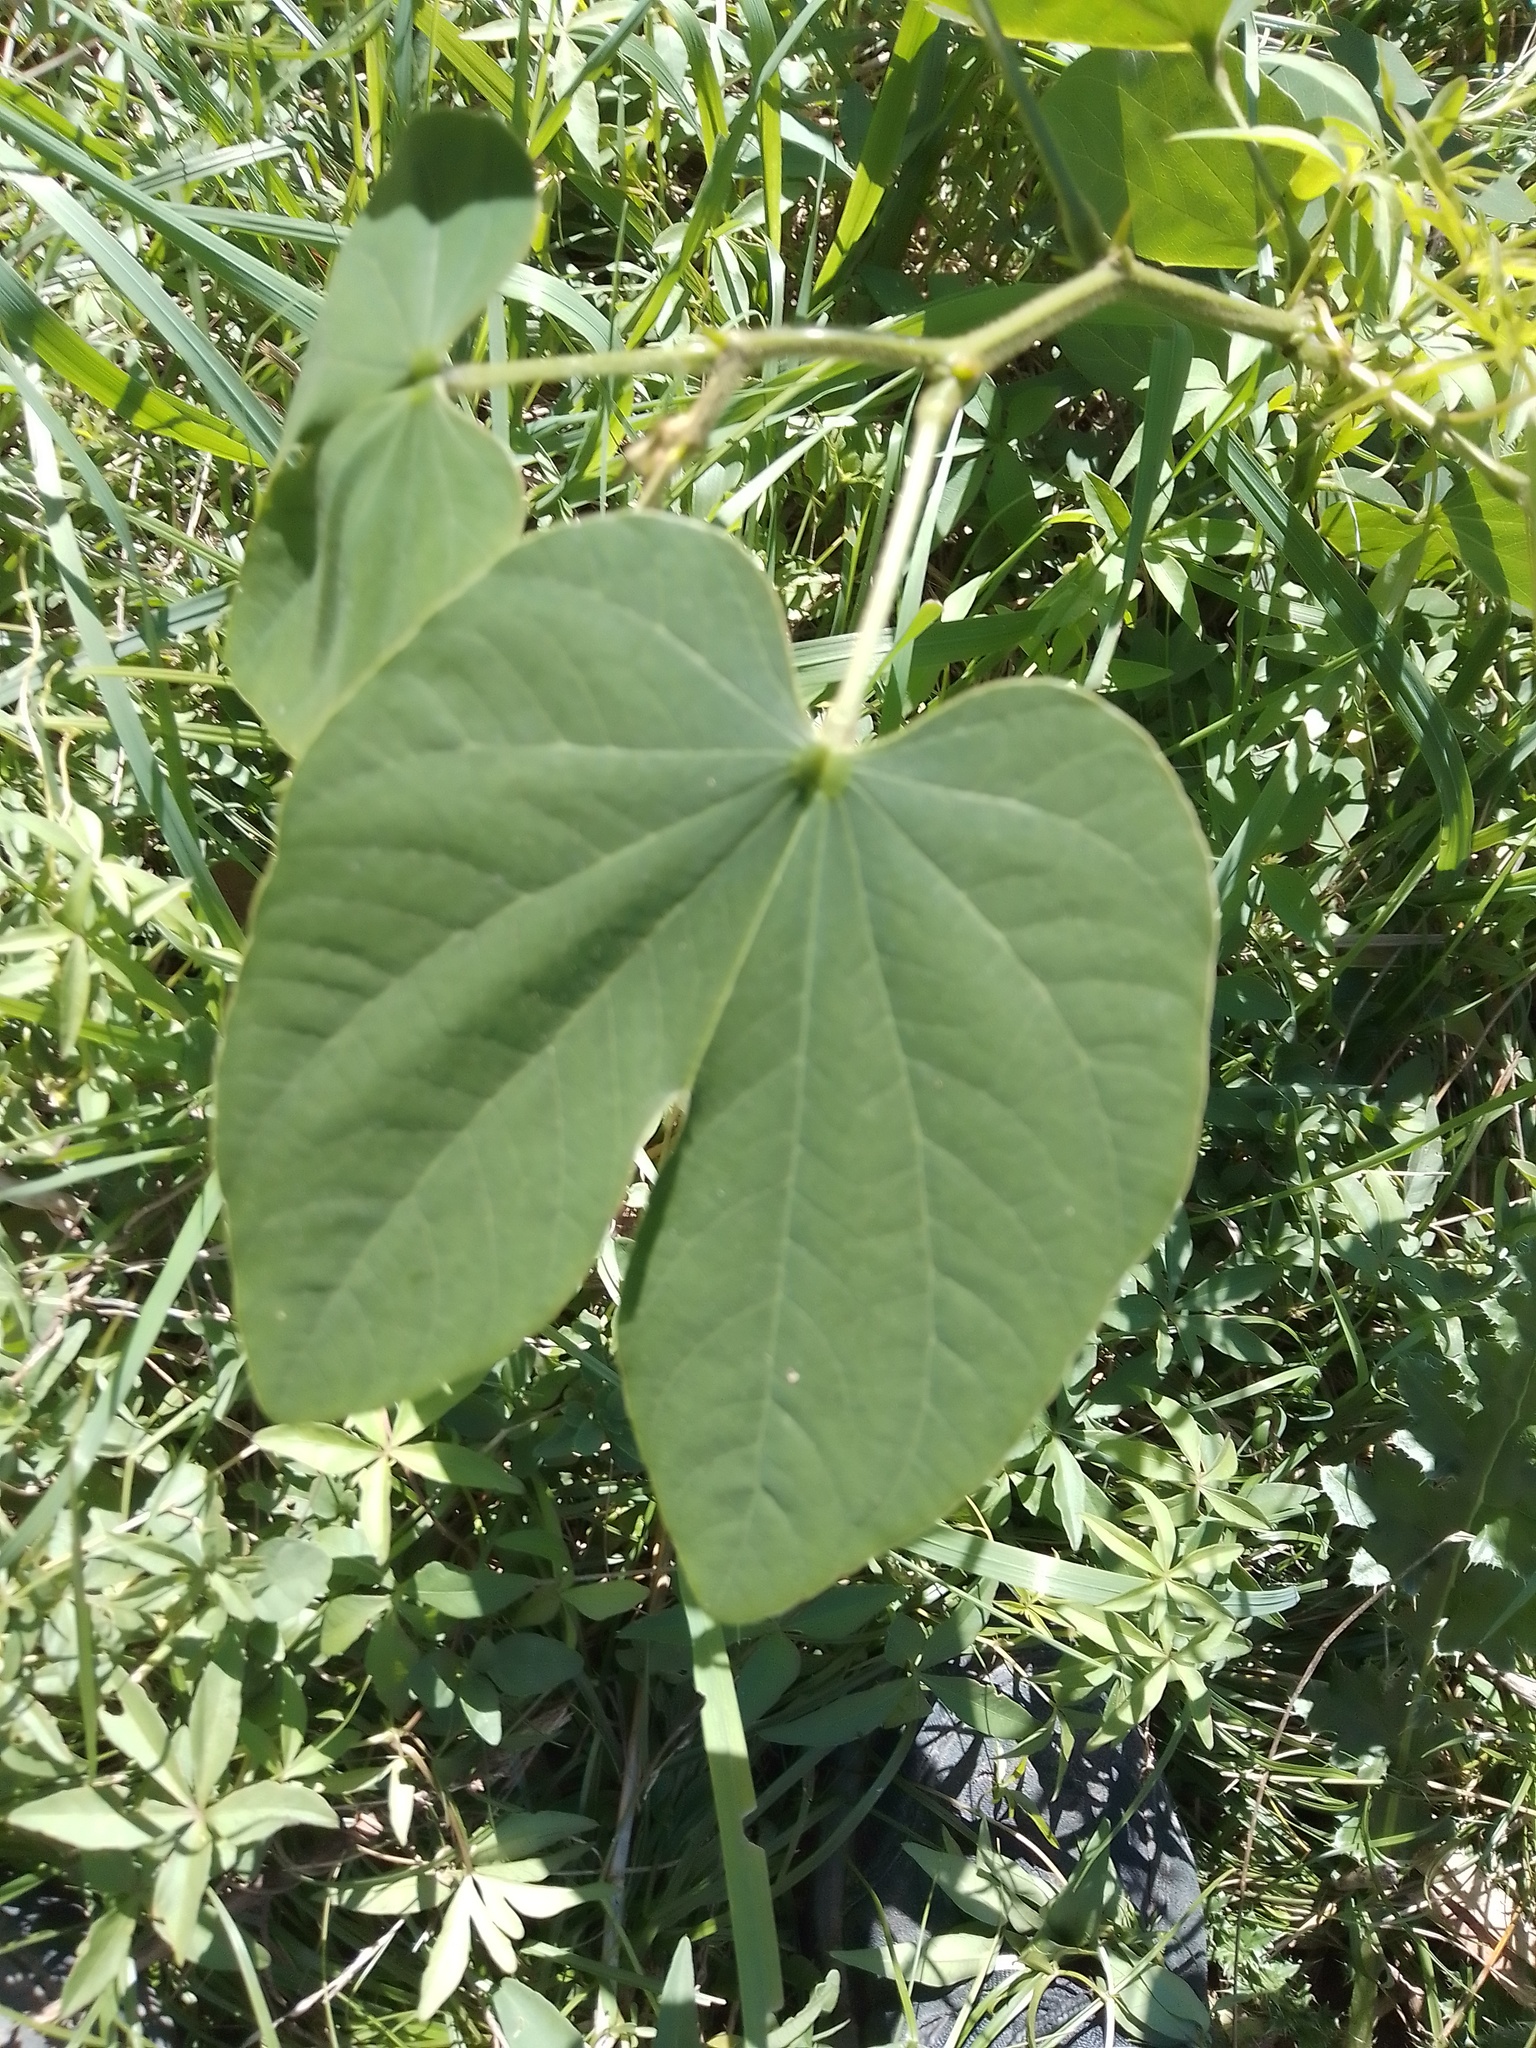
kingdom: Plantae
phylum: Tracheophyta
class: Magnoliopsida
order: Fabales
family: Fabaceae
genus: Bauhinia
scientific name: Bauhinia forficata
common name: Orchid tree
